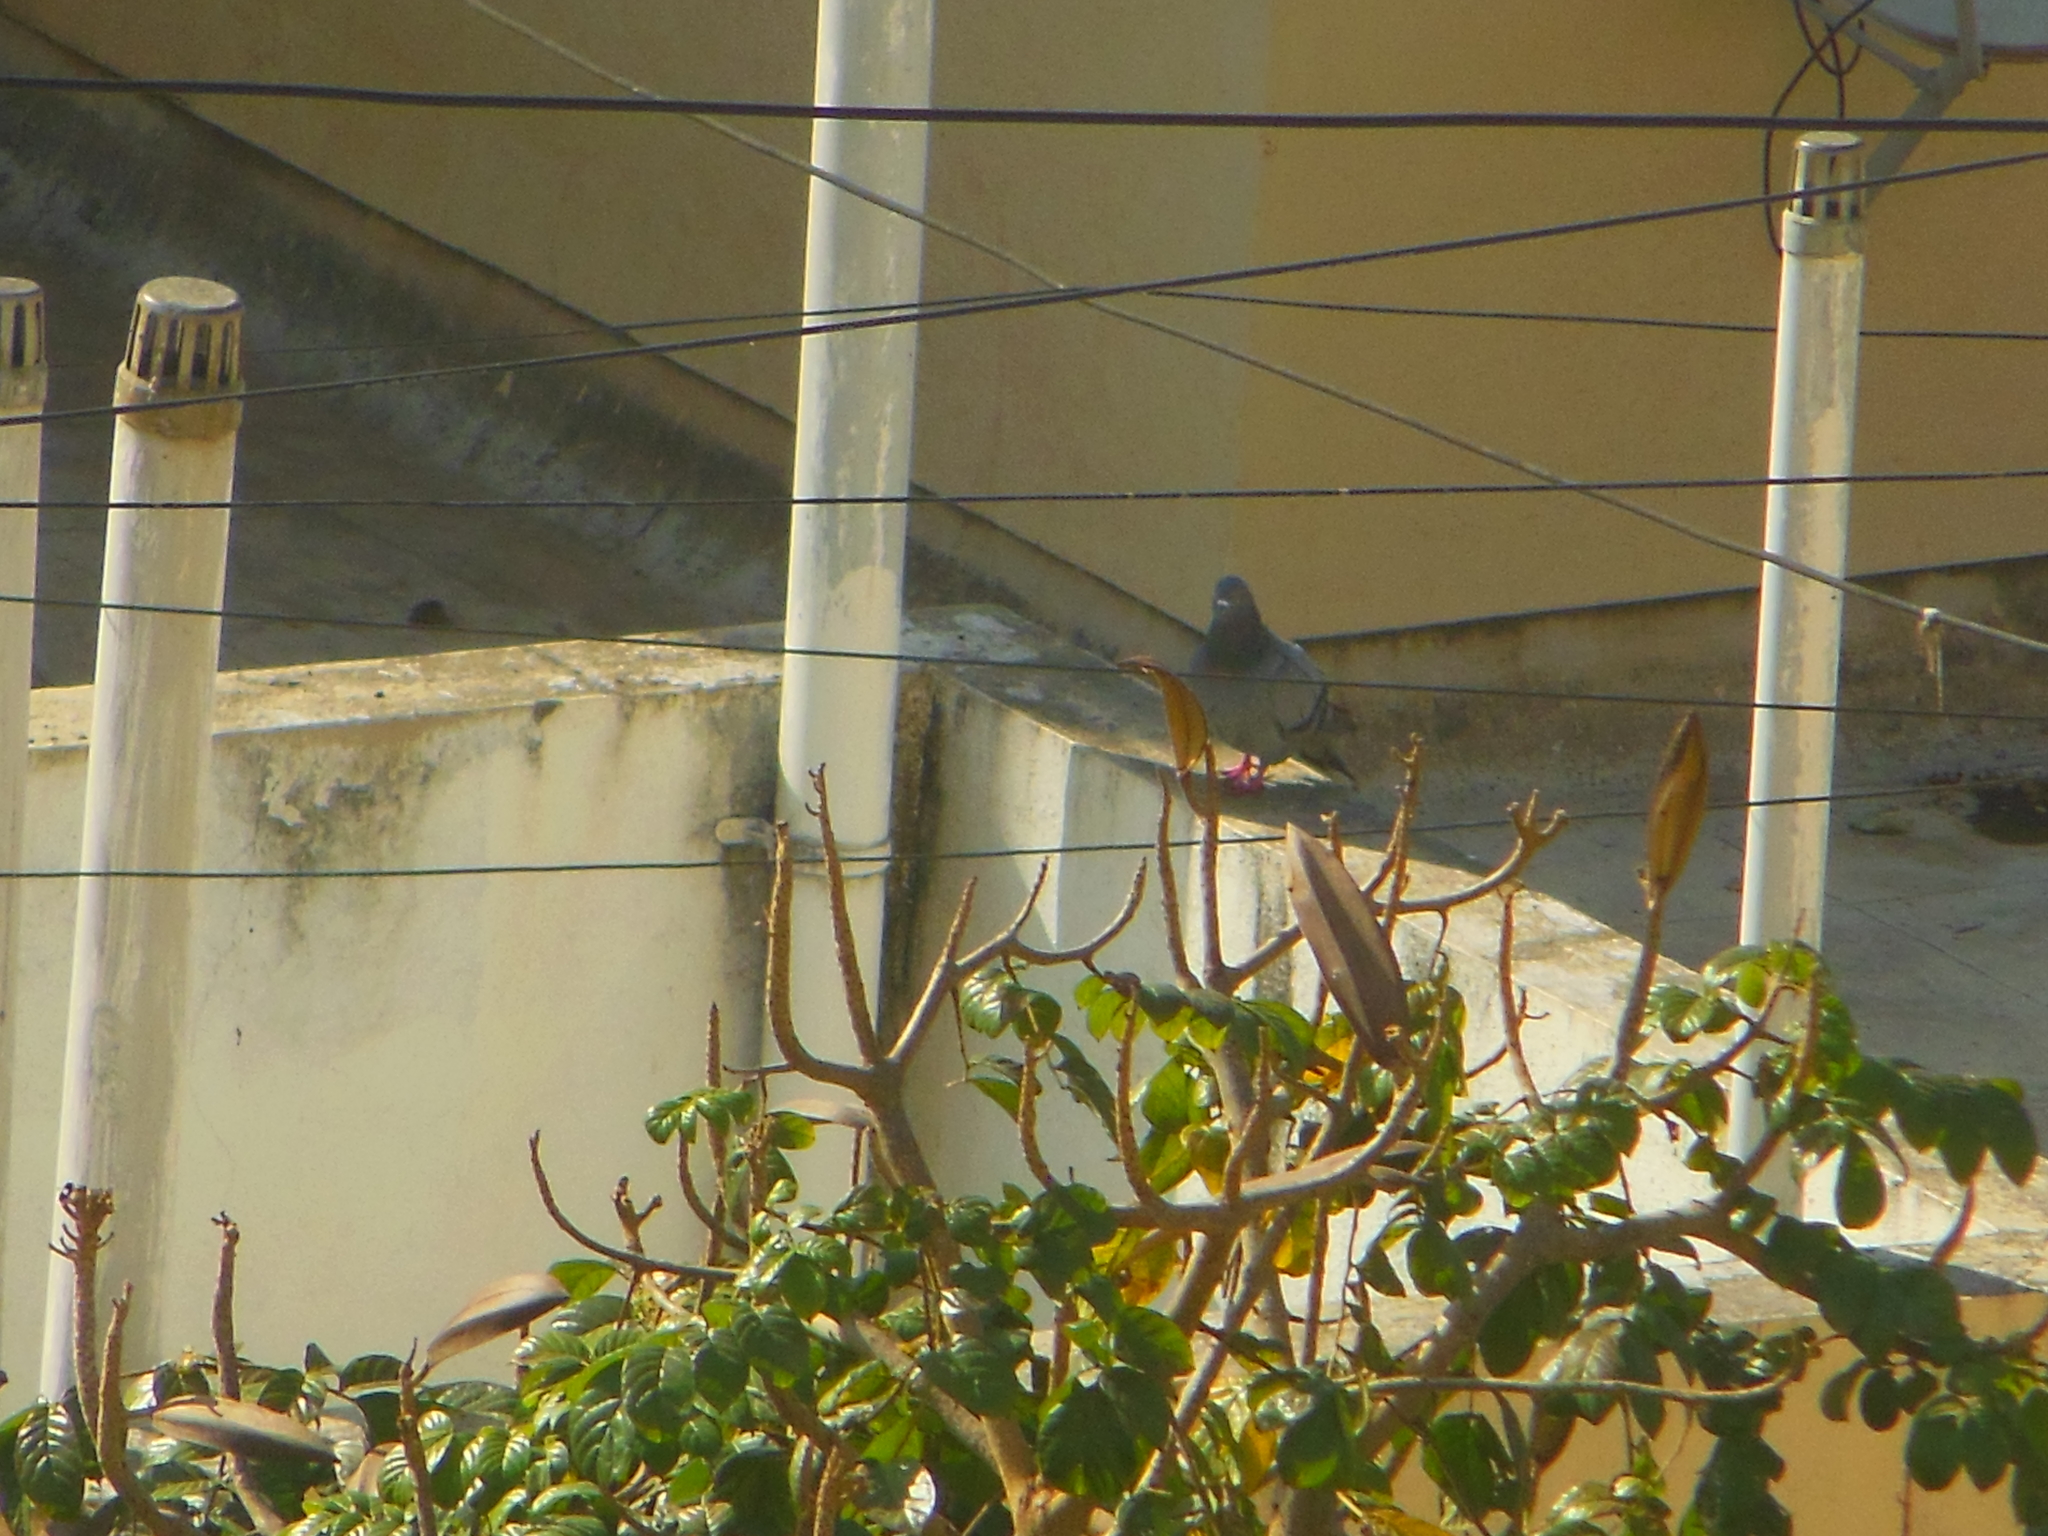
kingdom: Animalia
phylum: Chordata
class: Aves
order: Columbiformes
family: Columbidae
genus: Columba
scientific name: Columba livia
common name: Rock pigeon
